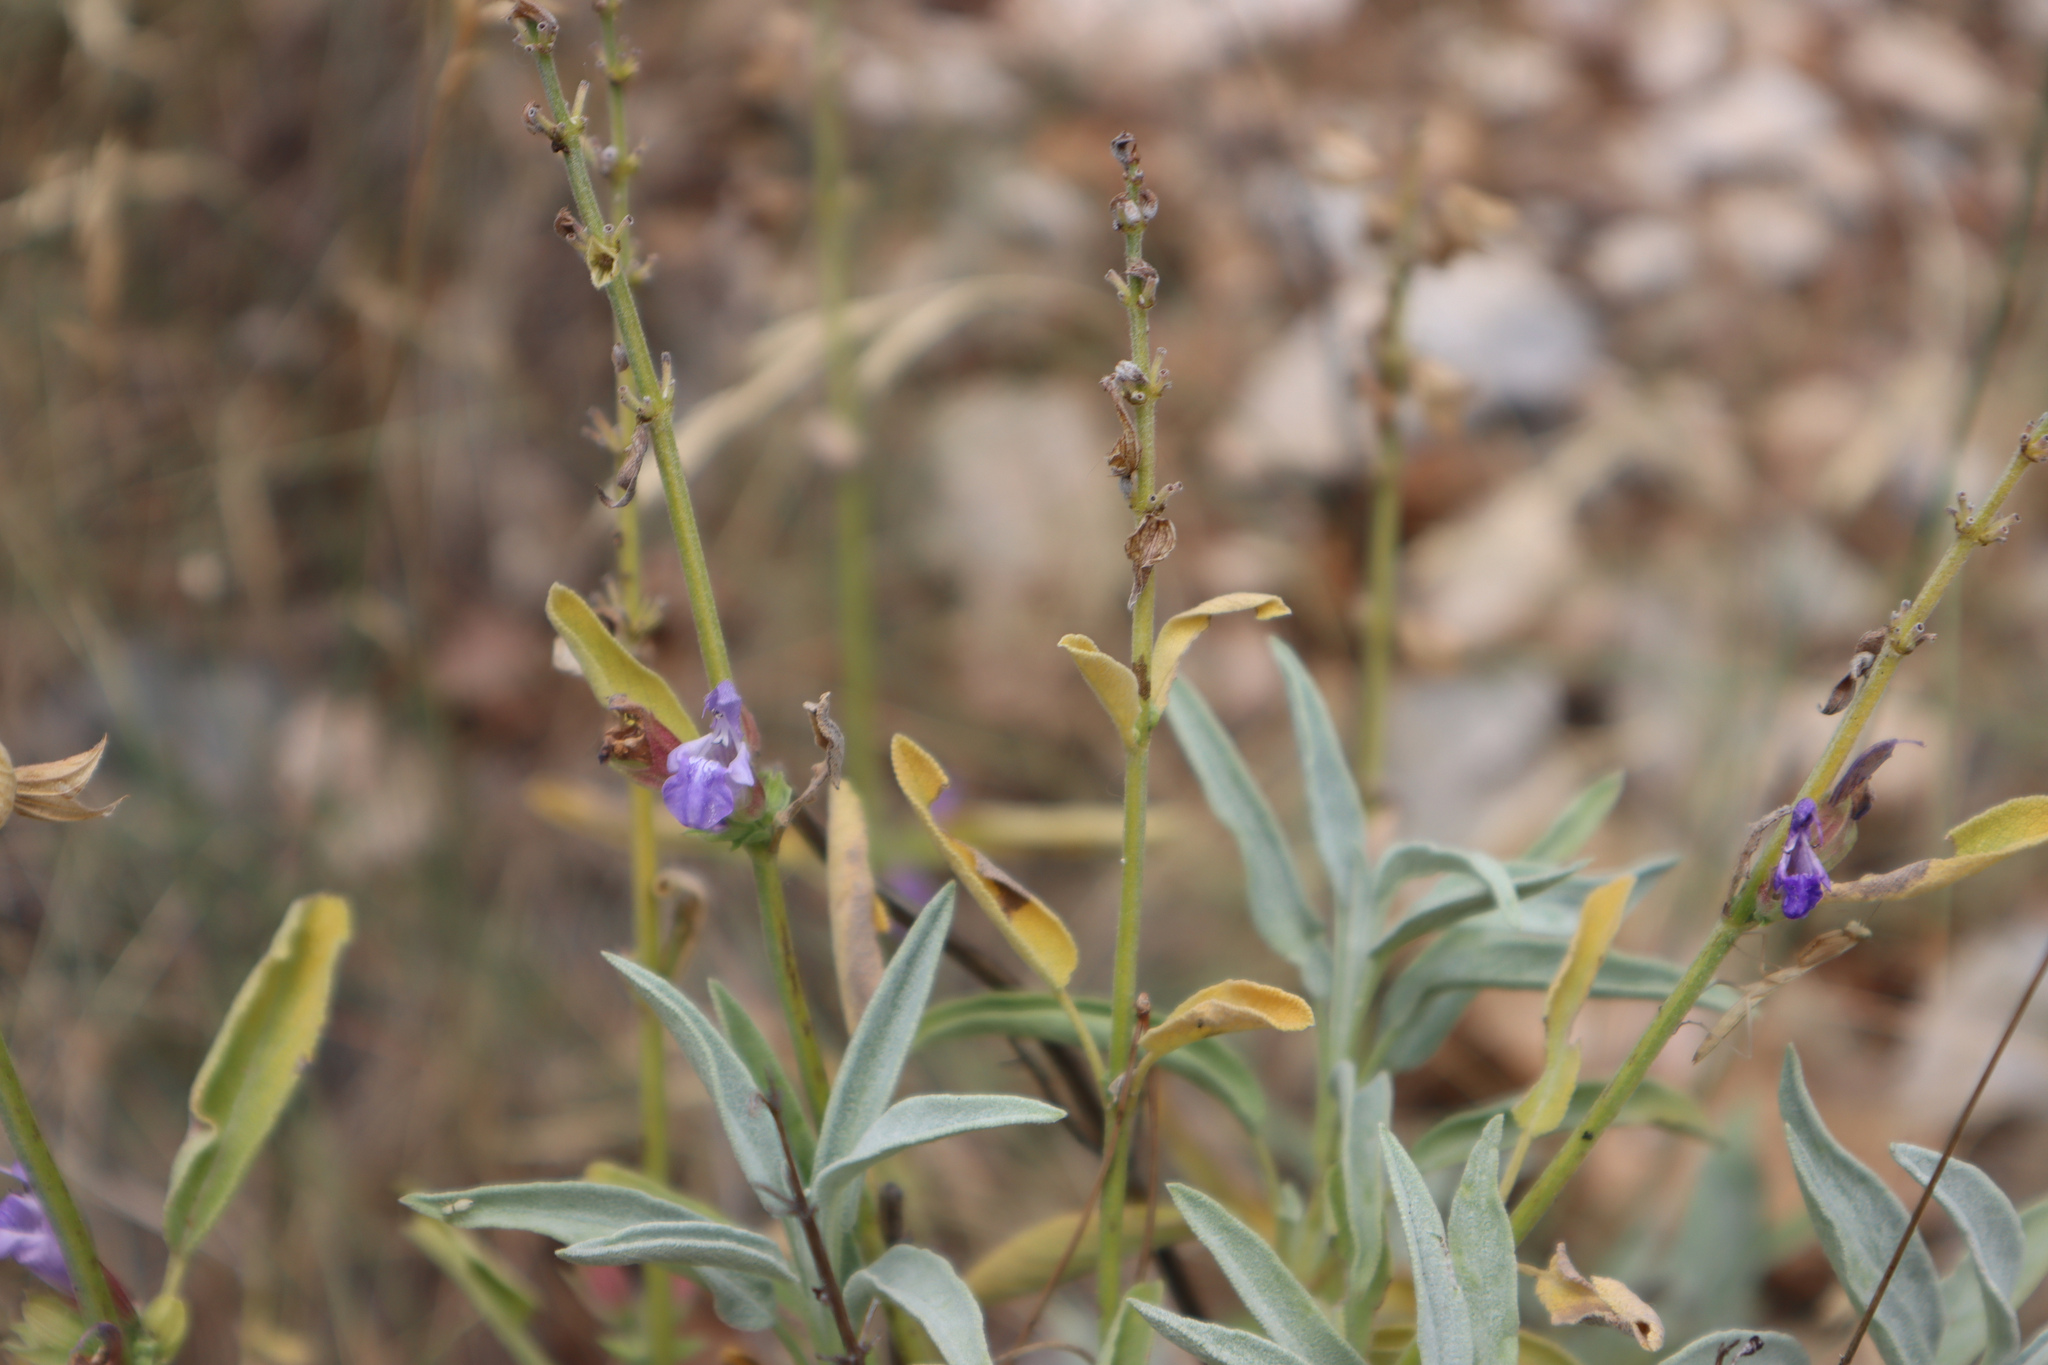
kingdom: Plantae
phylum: Tracheophyta
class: Magnoliopsida
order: Lamiales
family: Lamiaceae
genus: Salvia
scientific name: Salvia officinalis
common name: Sage
